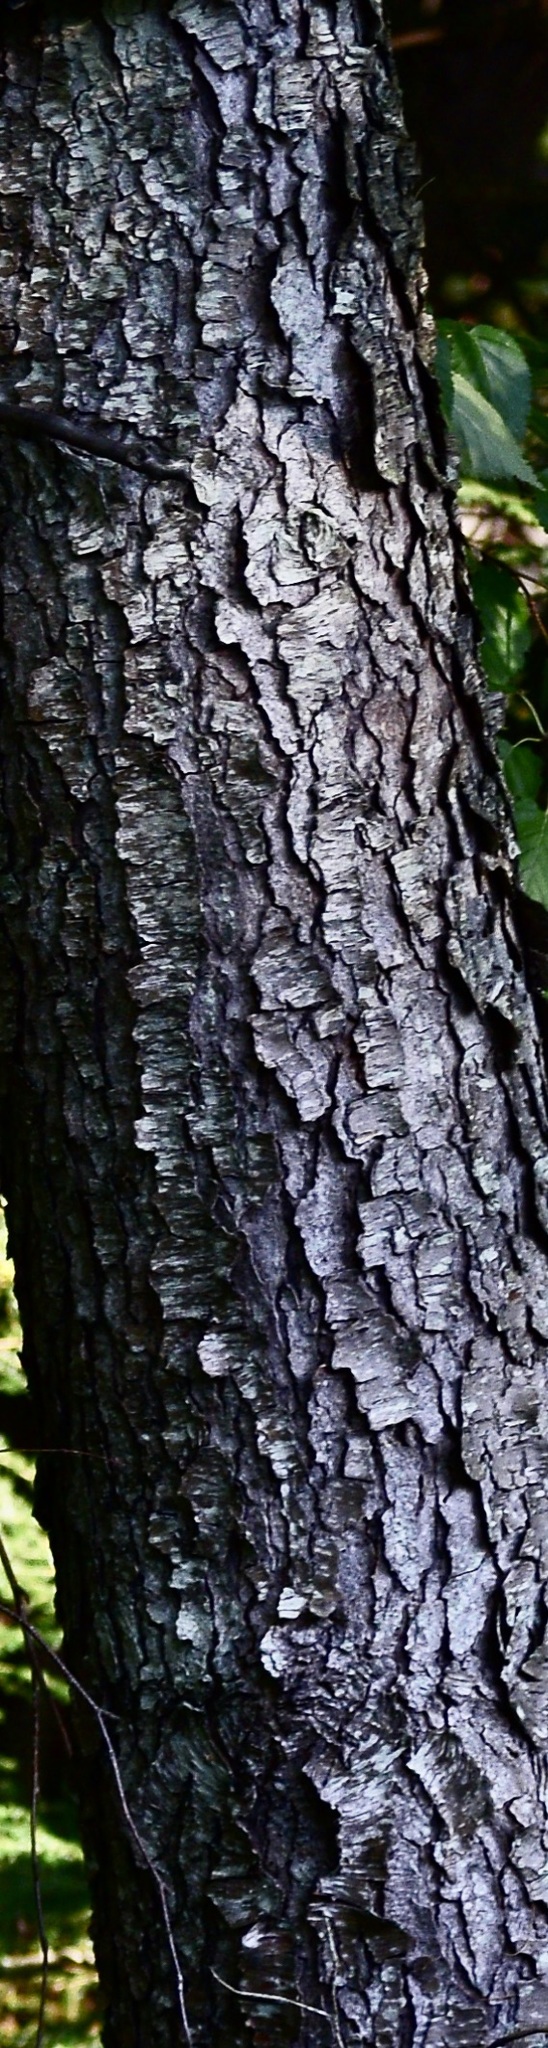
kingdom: Plantae
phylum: Tracheophyta
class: Magnoliopsida
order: Rosales
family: Rosaceae
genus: Prunus
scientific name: Prunus serotina
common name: Black cherry
